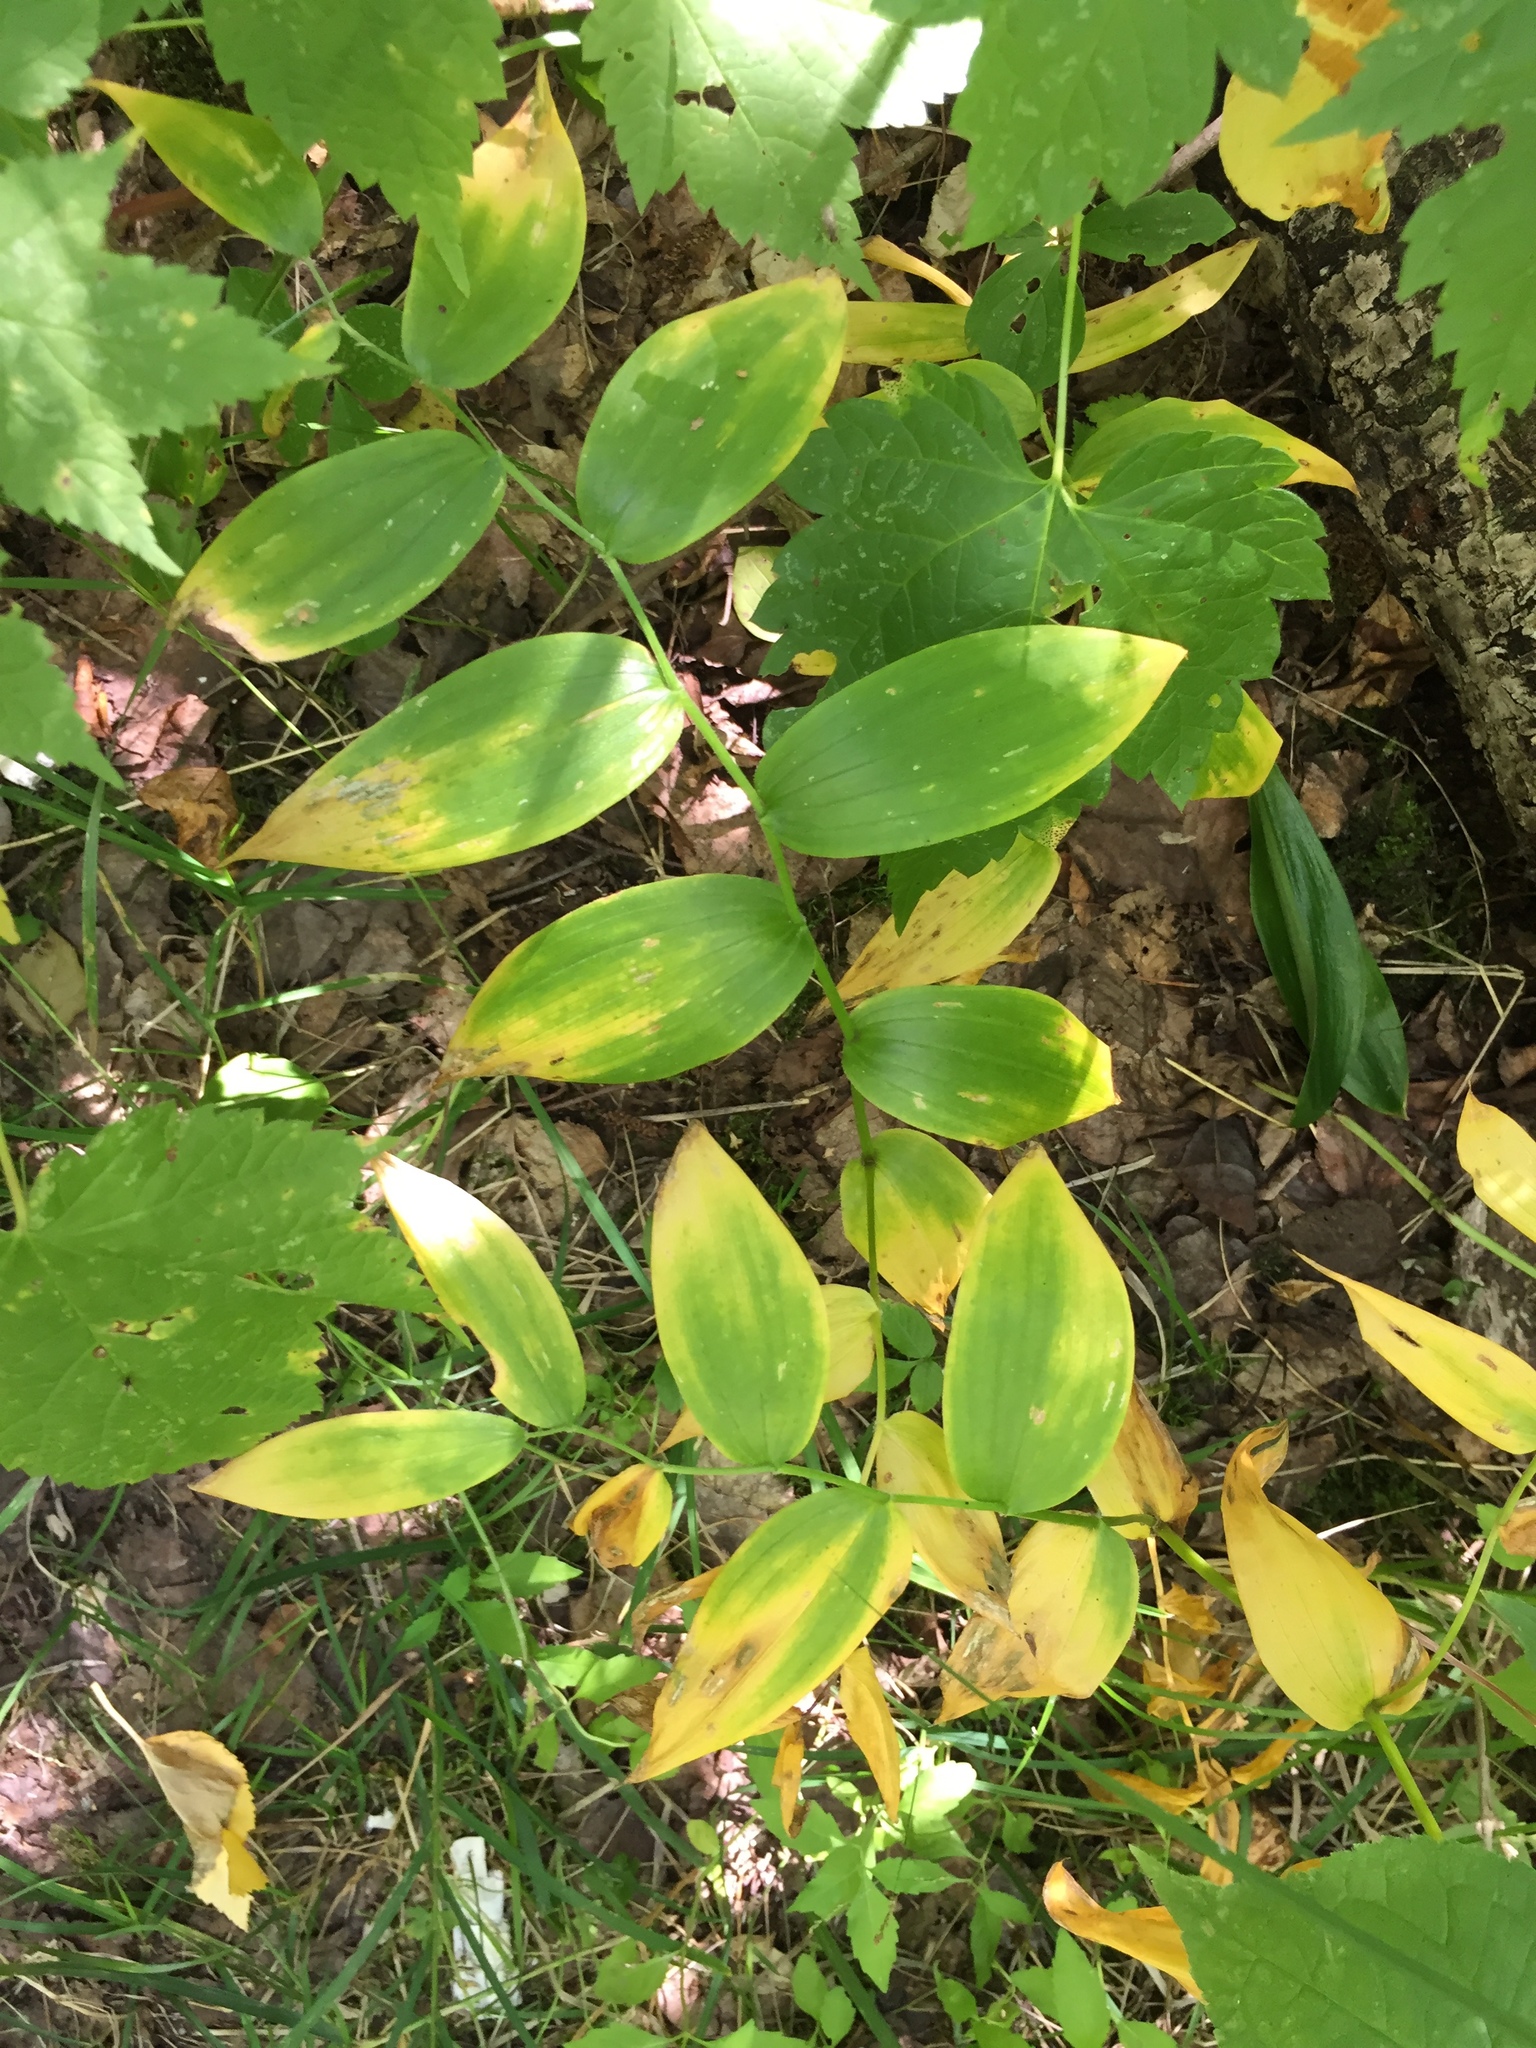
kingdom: Plantae
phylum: Tracheophyta
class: Liliopsida
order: Liliales
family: Liliaceae
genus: Streptopus
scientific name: Streptopus lanceolatus
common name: Rose mandarin
